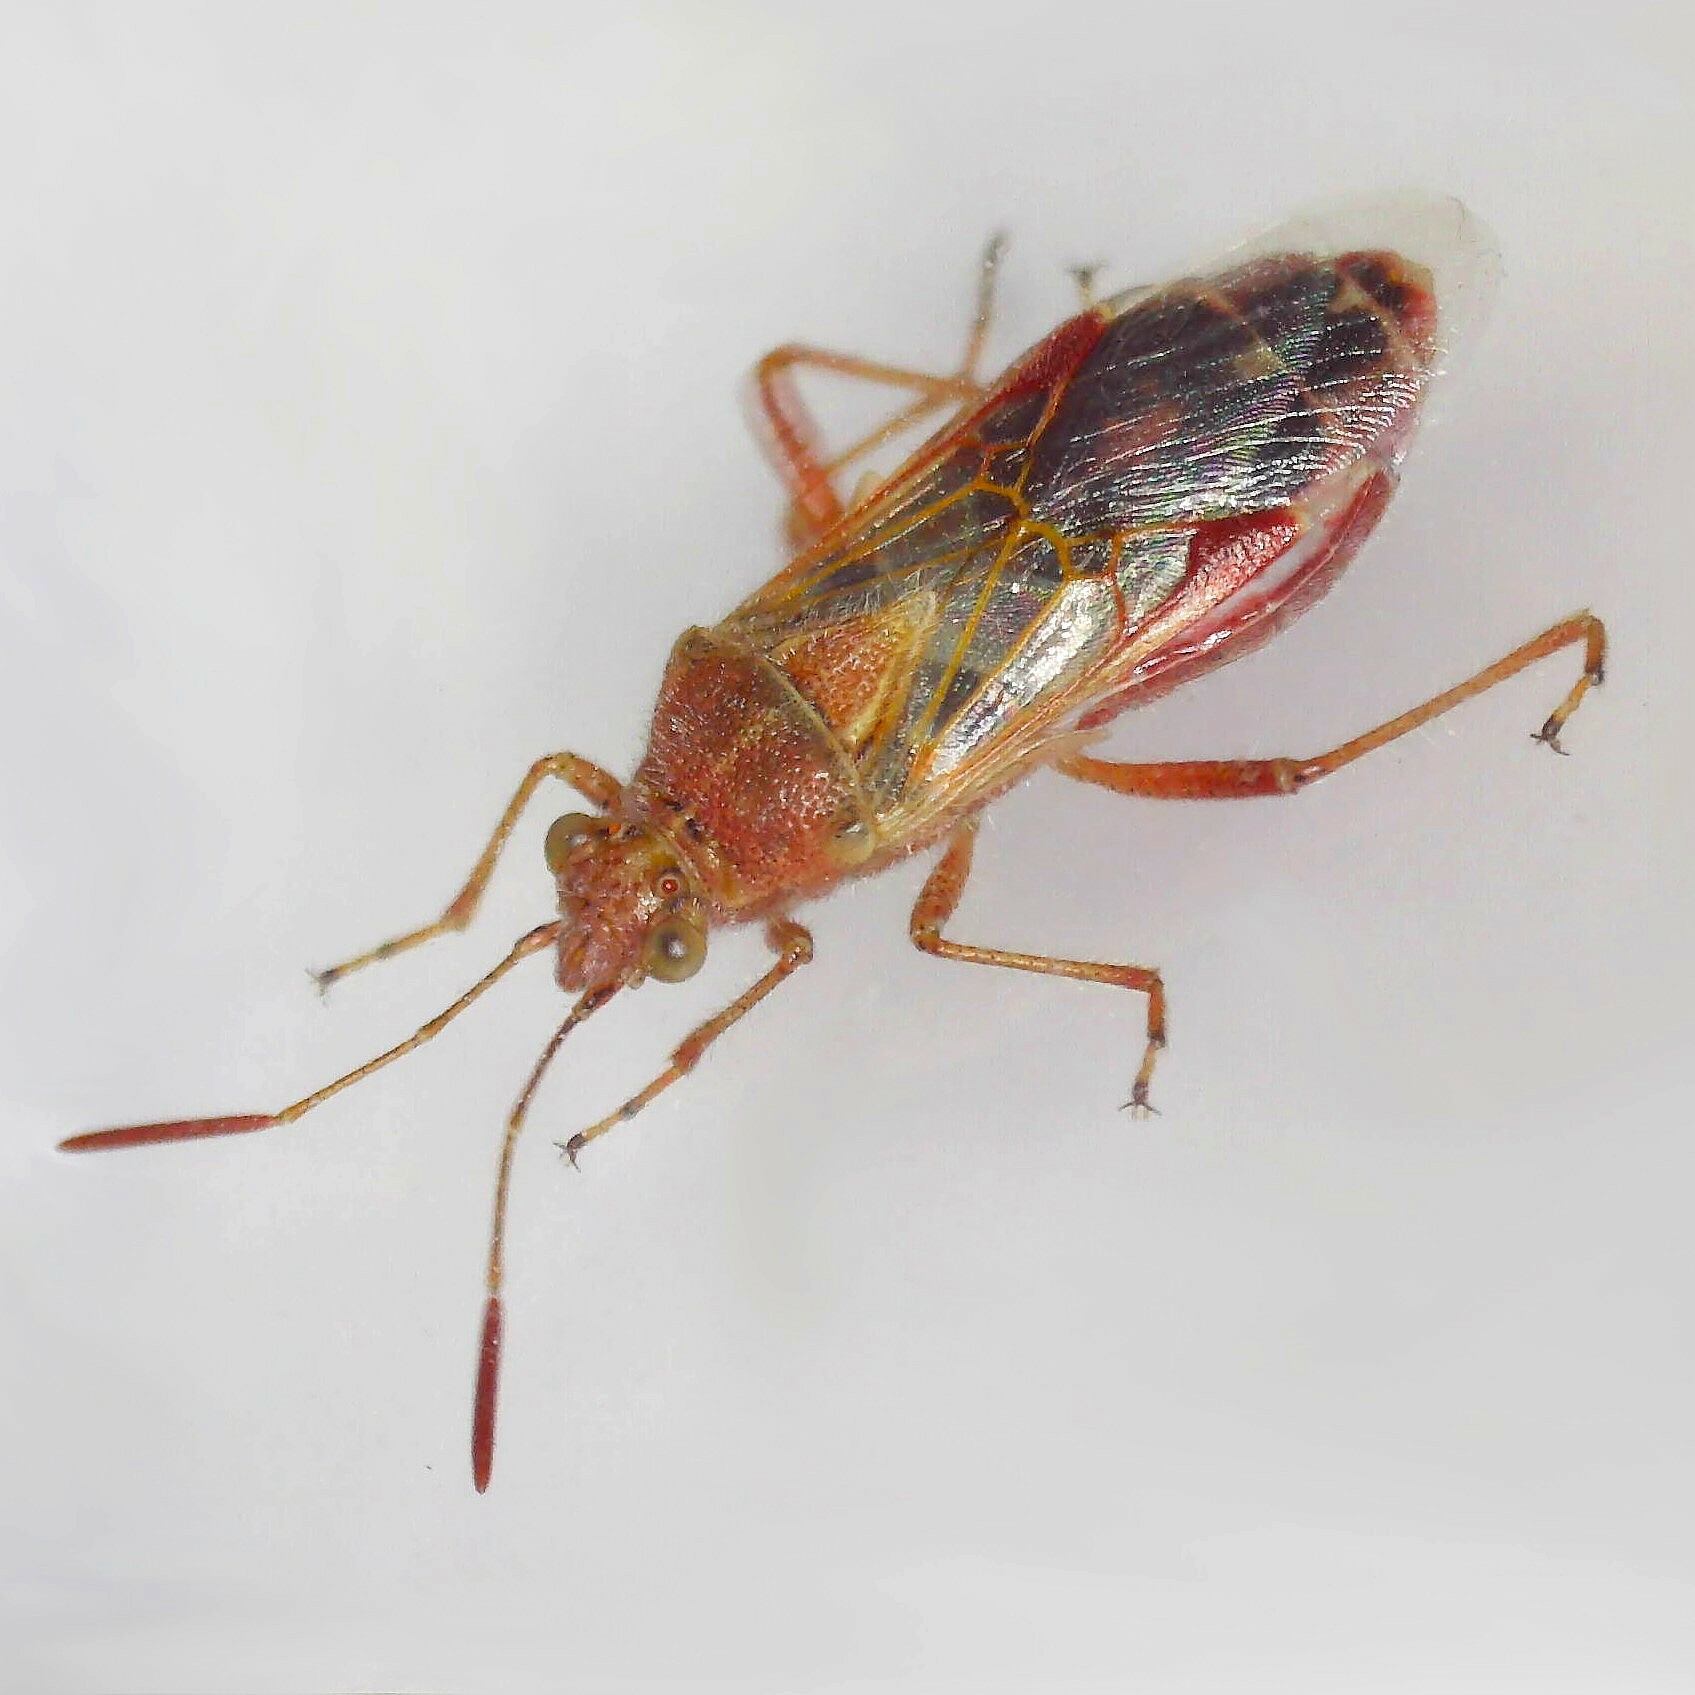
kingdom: Animalia
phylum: Arthropoda
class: Insecta
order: Hemiptera
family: Rhopalidae
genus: Liorhyssus
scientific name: Liorhyssus hyalinus
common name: Scentless plant bug
